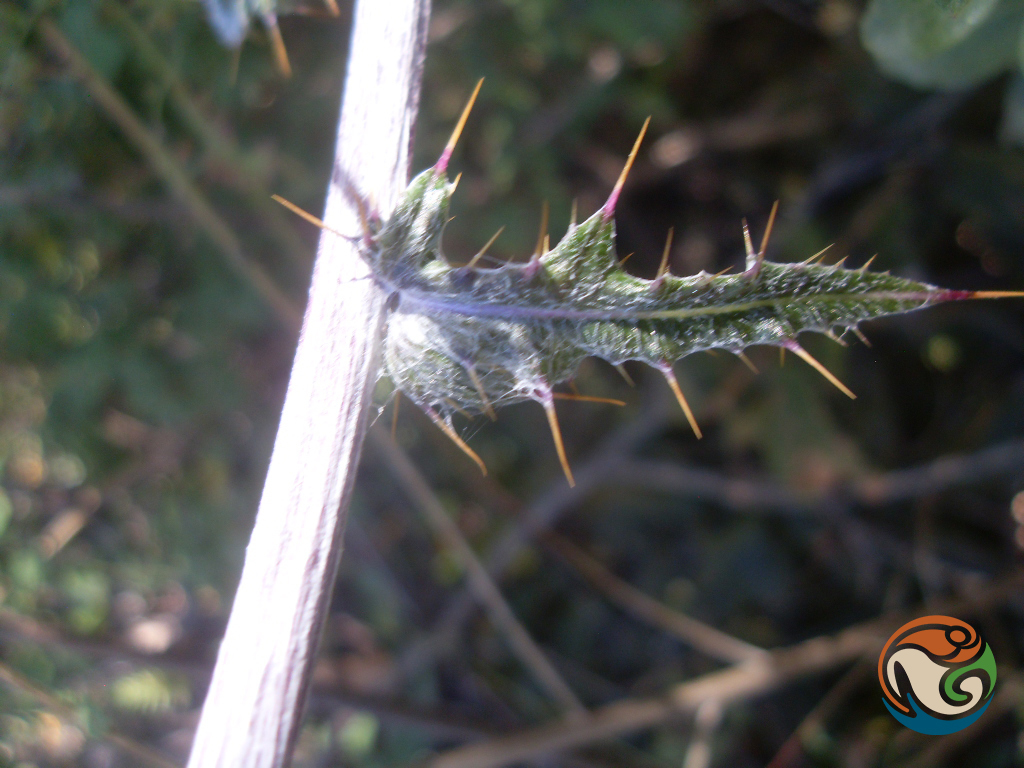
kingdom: Plantae
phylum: Tracheophyta
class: Magnoliopsida
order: Asterales
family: Asteraceae
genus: Cirsium
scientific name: Cirsium conspicuum
